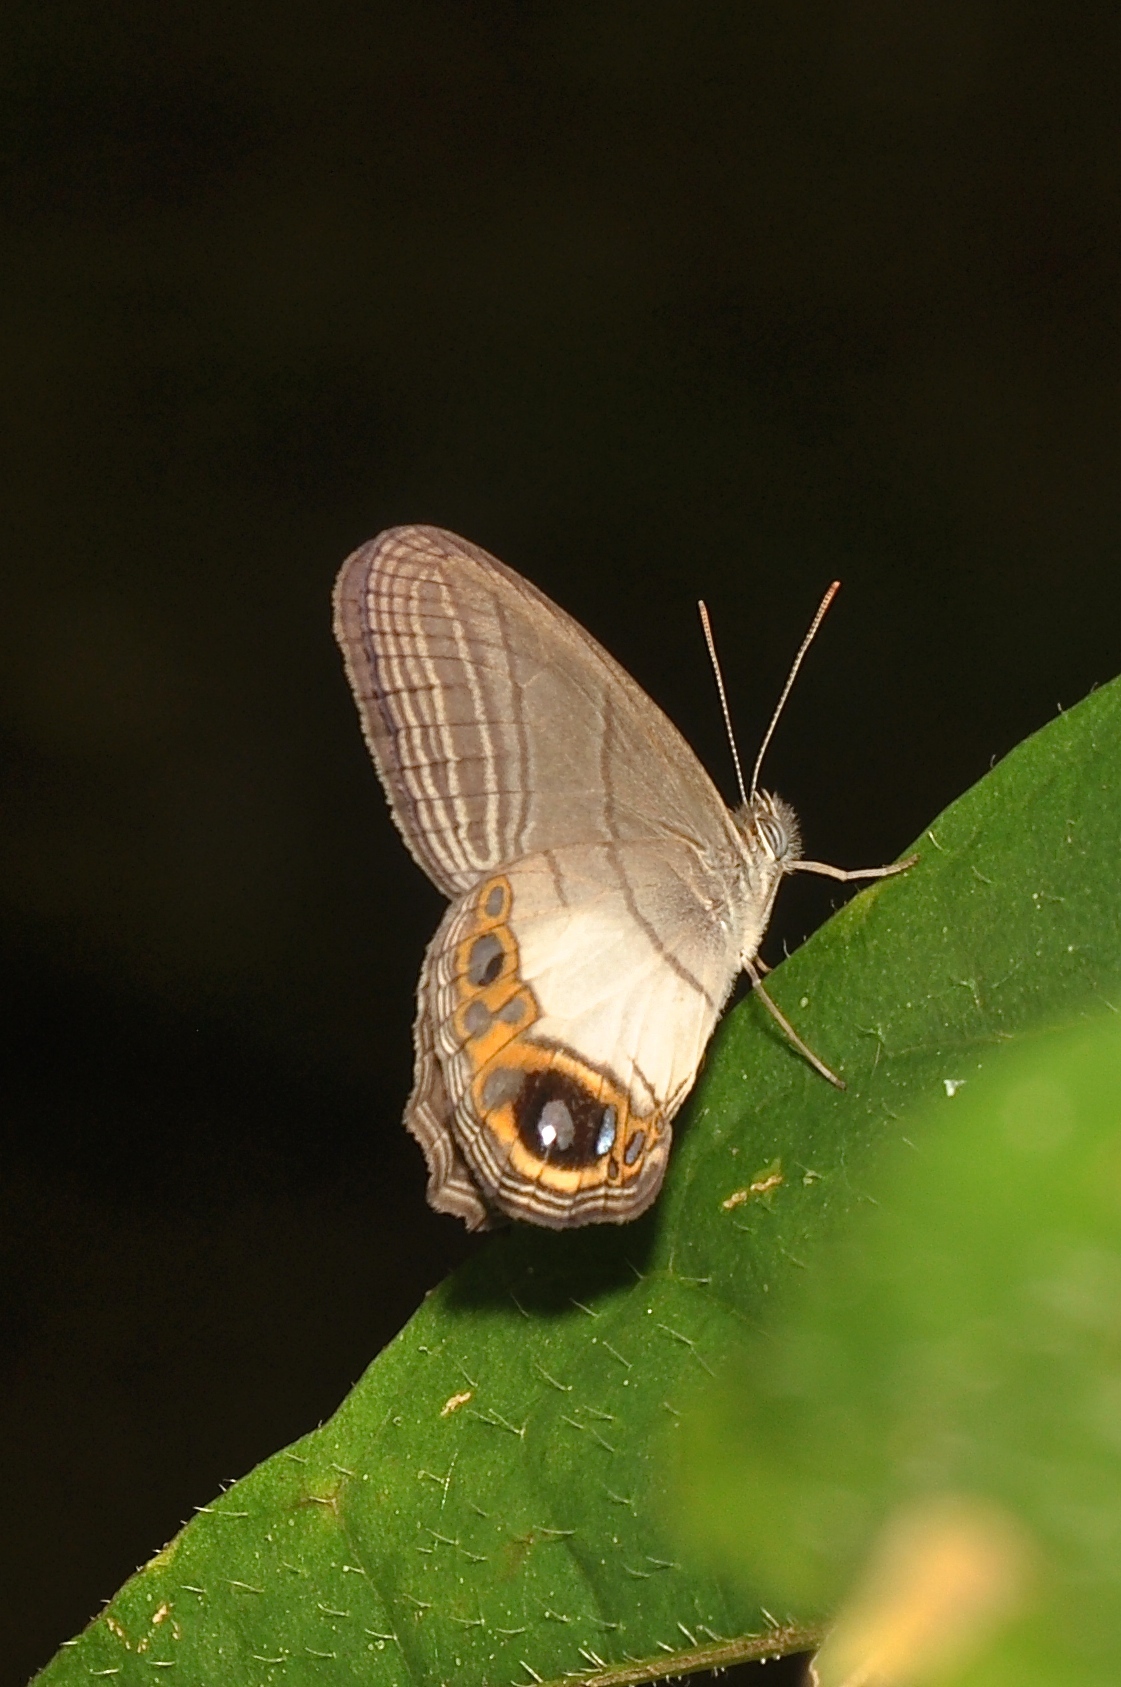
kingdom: Animalia
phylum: Arthropoda
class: Insecta
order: Lepidoptera
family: Nymphalidae
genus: Splendeuptychia
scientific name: Splendeuptychia itonis
